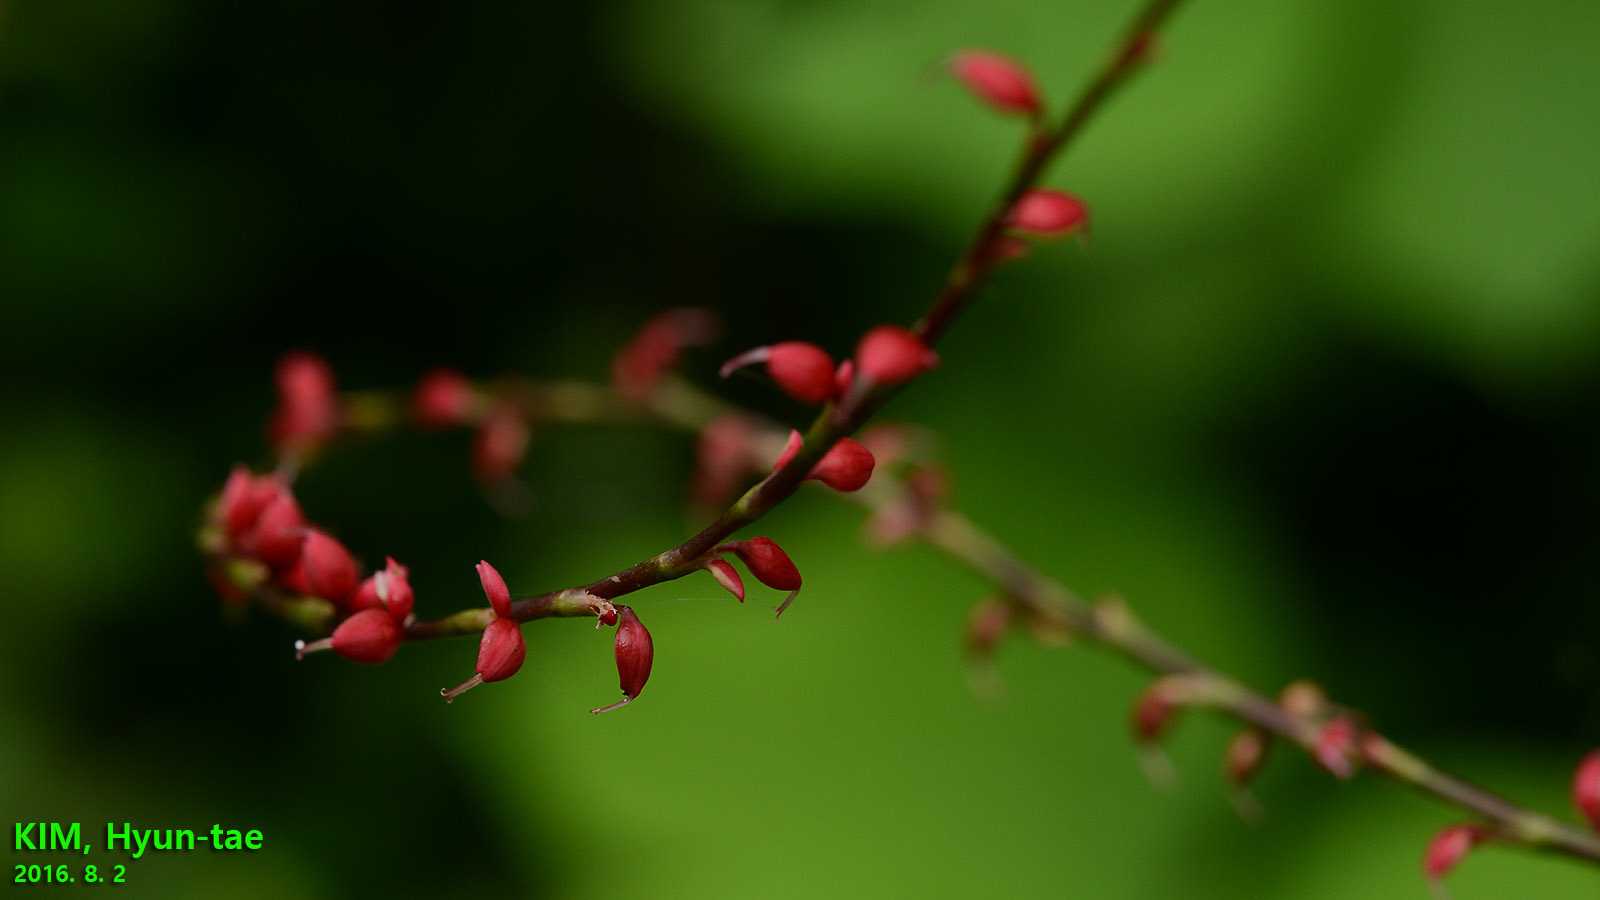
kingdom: Plantae
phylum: Tracheophyta
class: Magnoliopsida
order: Caryophyllales
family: Polygonaceae
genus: Persicaria
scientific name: Persicaria filiformis
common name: Asian jumpseed
